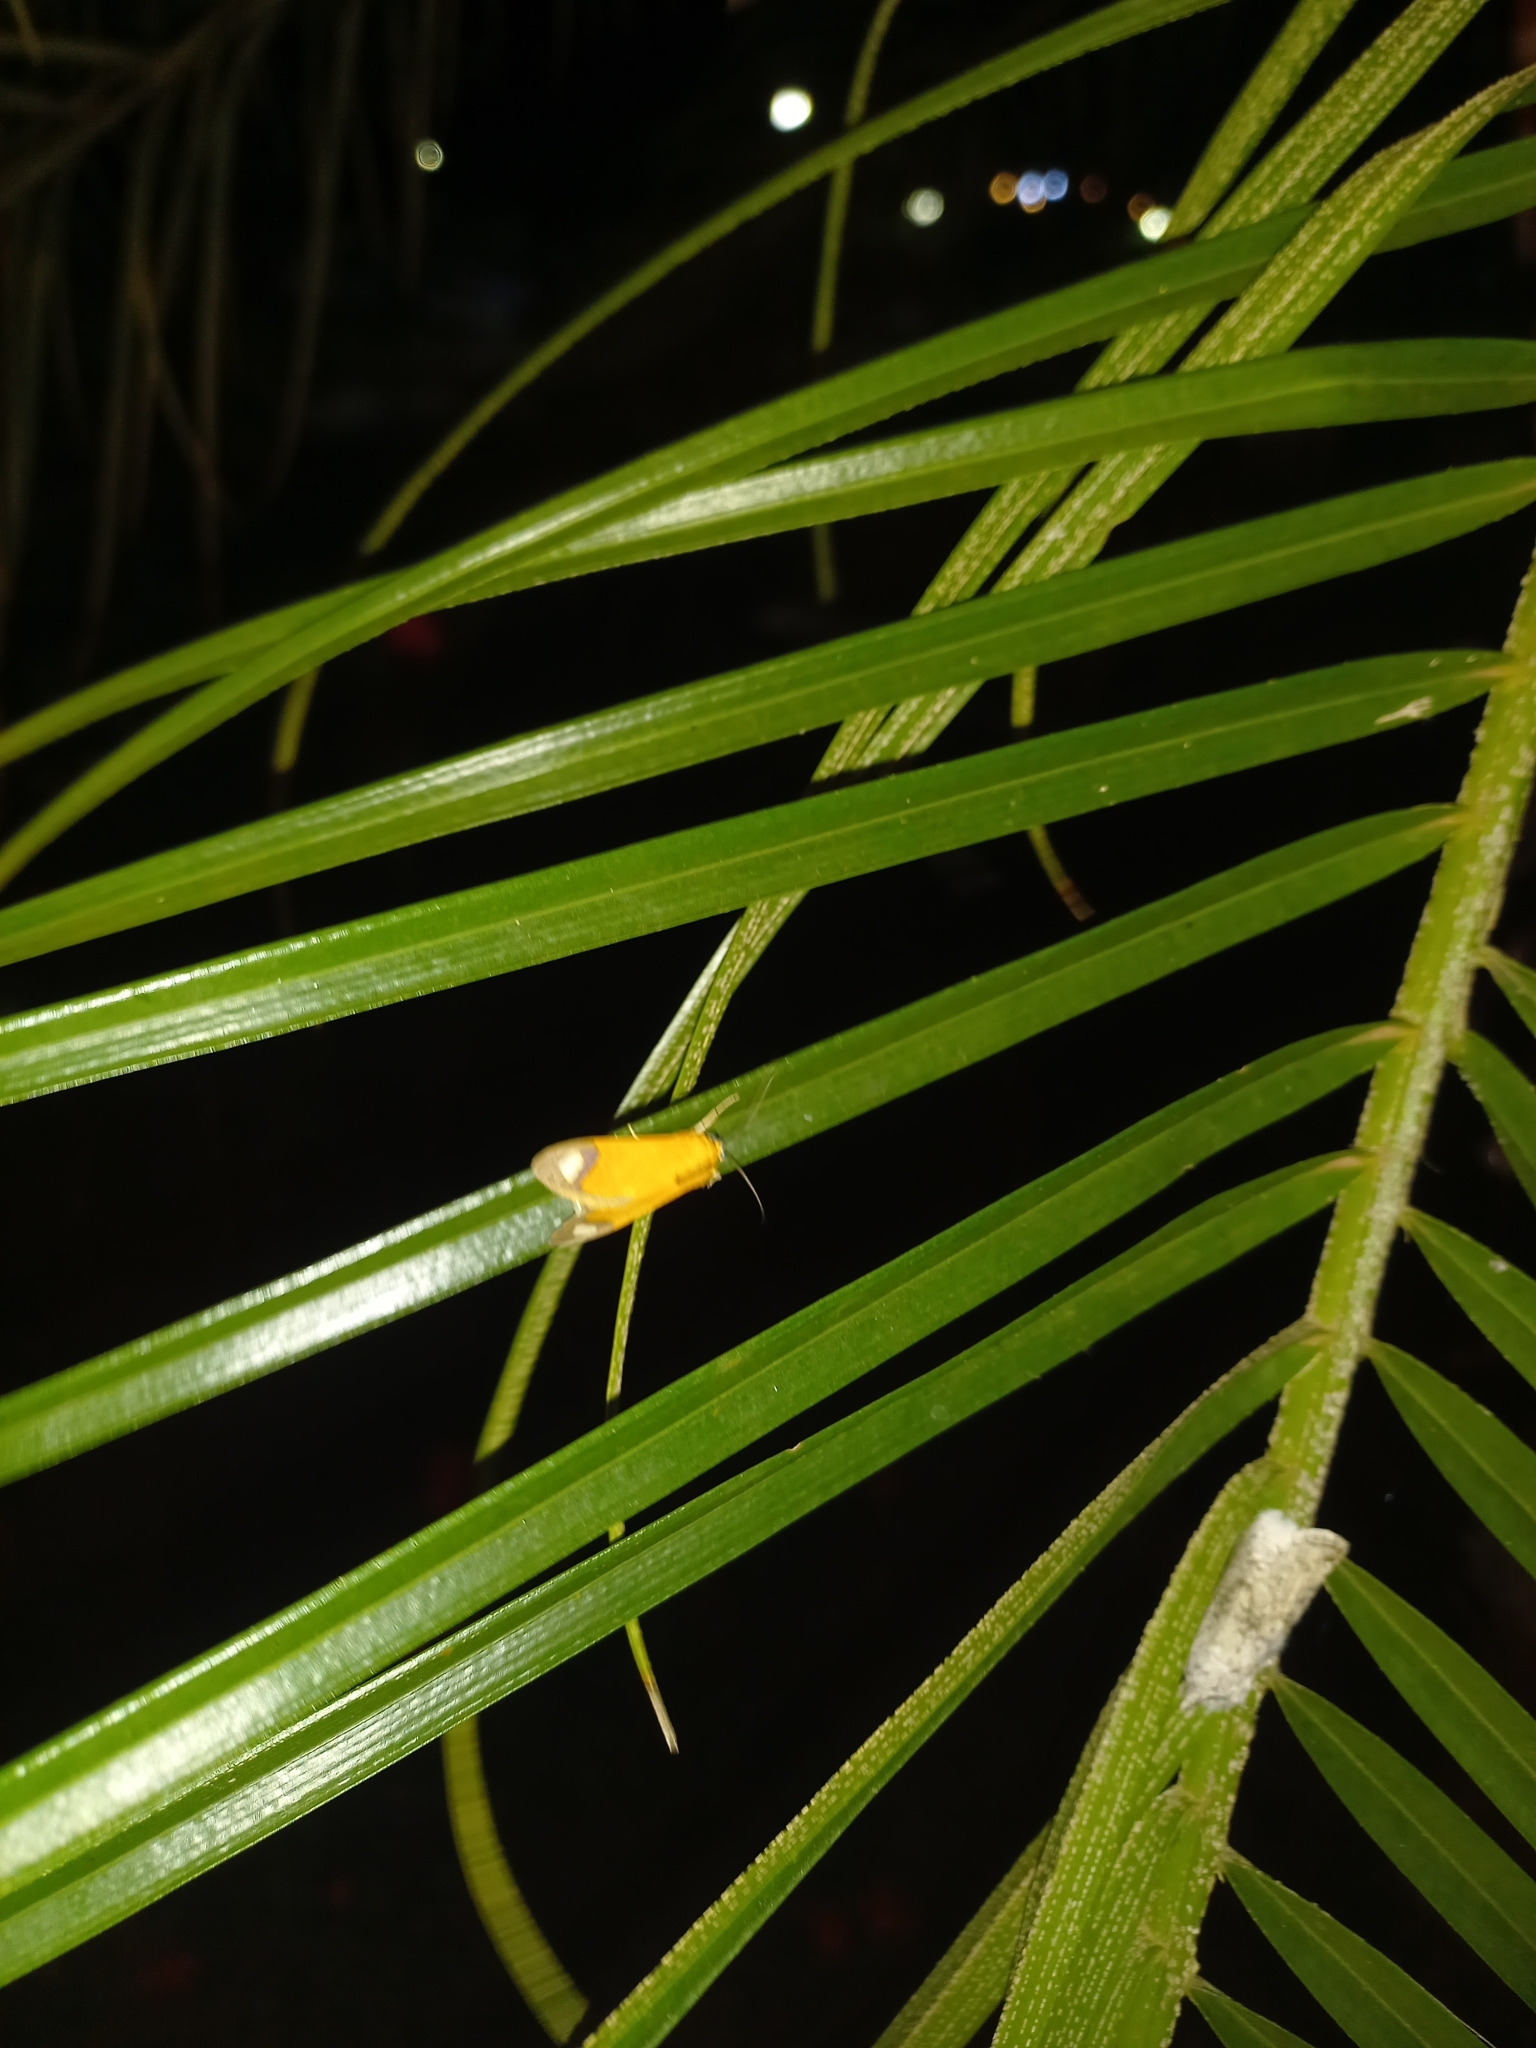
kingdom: Animalia
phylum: Arthropoda
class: Insecta
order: Lepidoptera
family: Erebidae
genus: Ormetica
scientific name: Ormetica contraria
